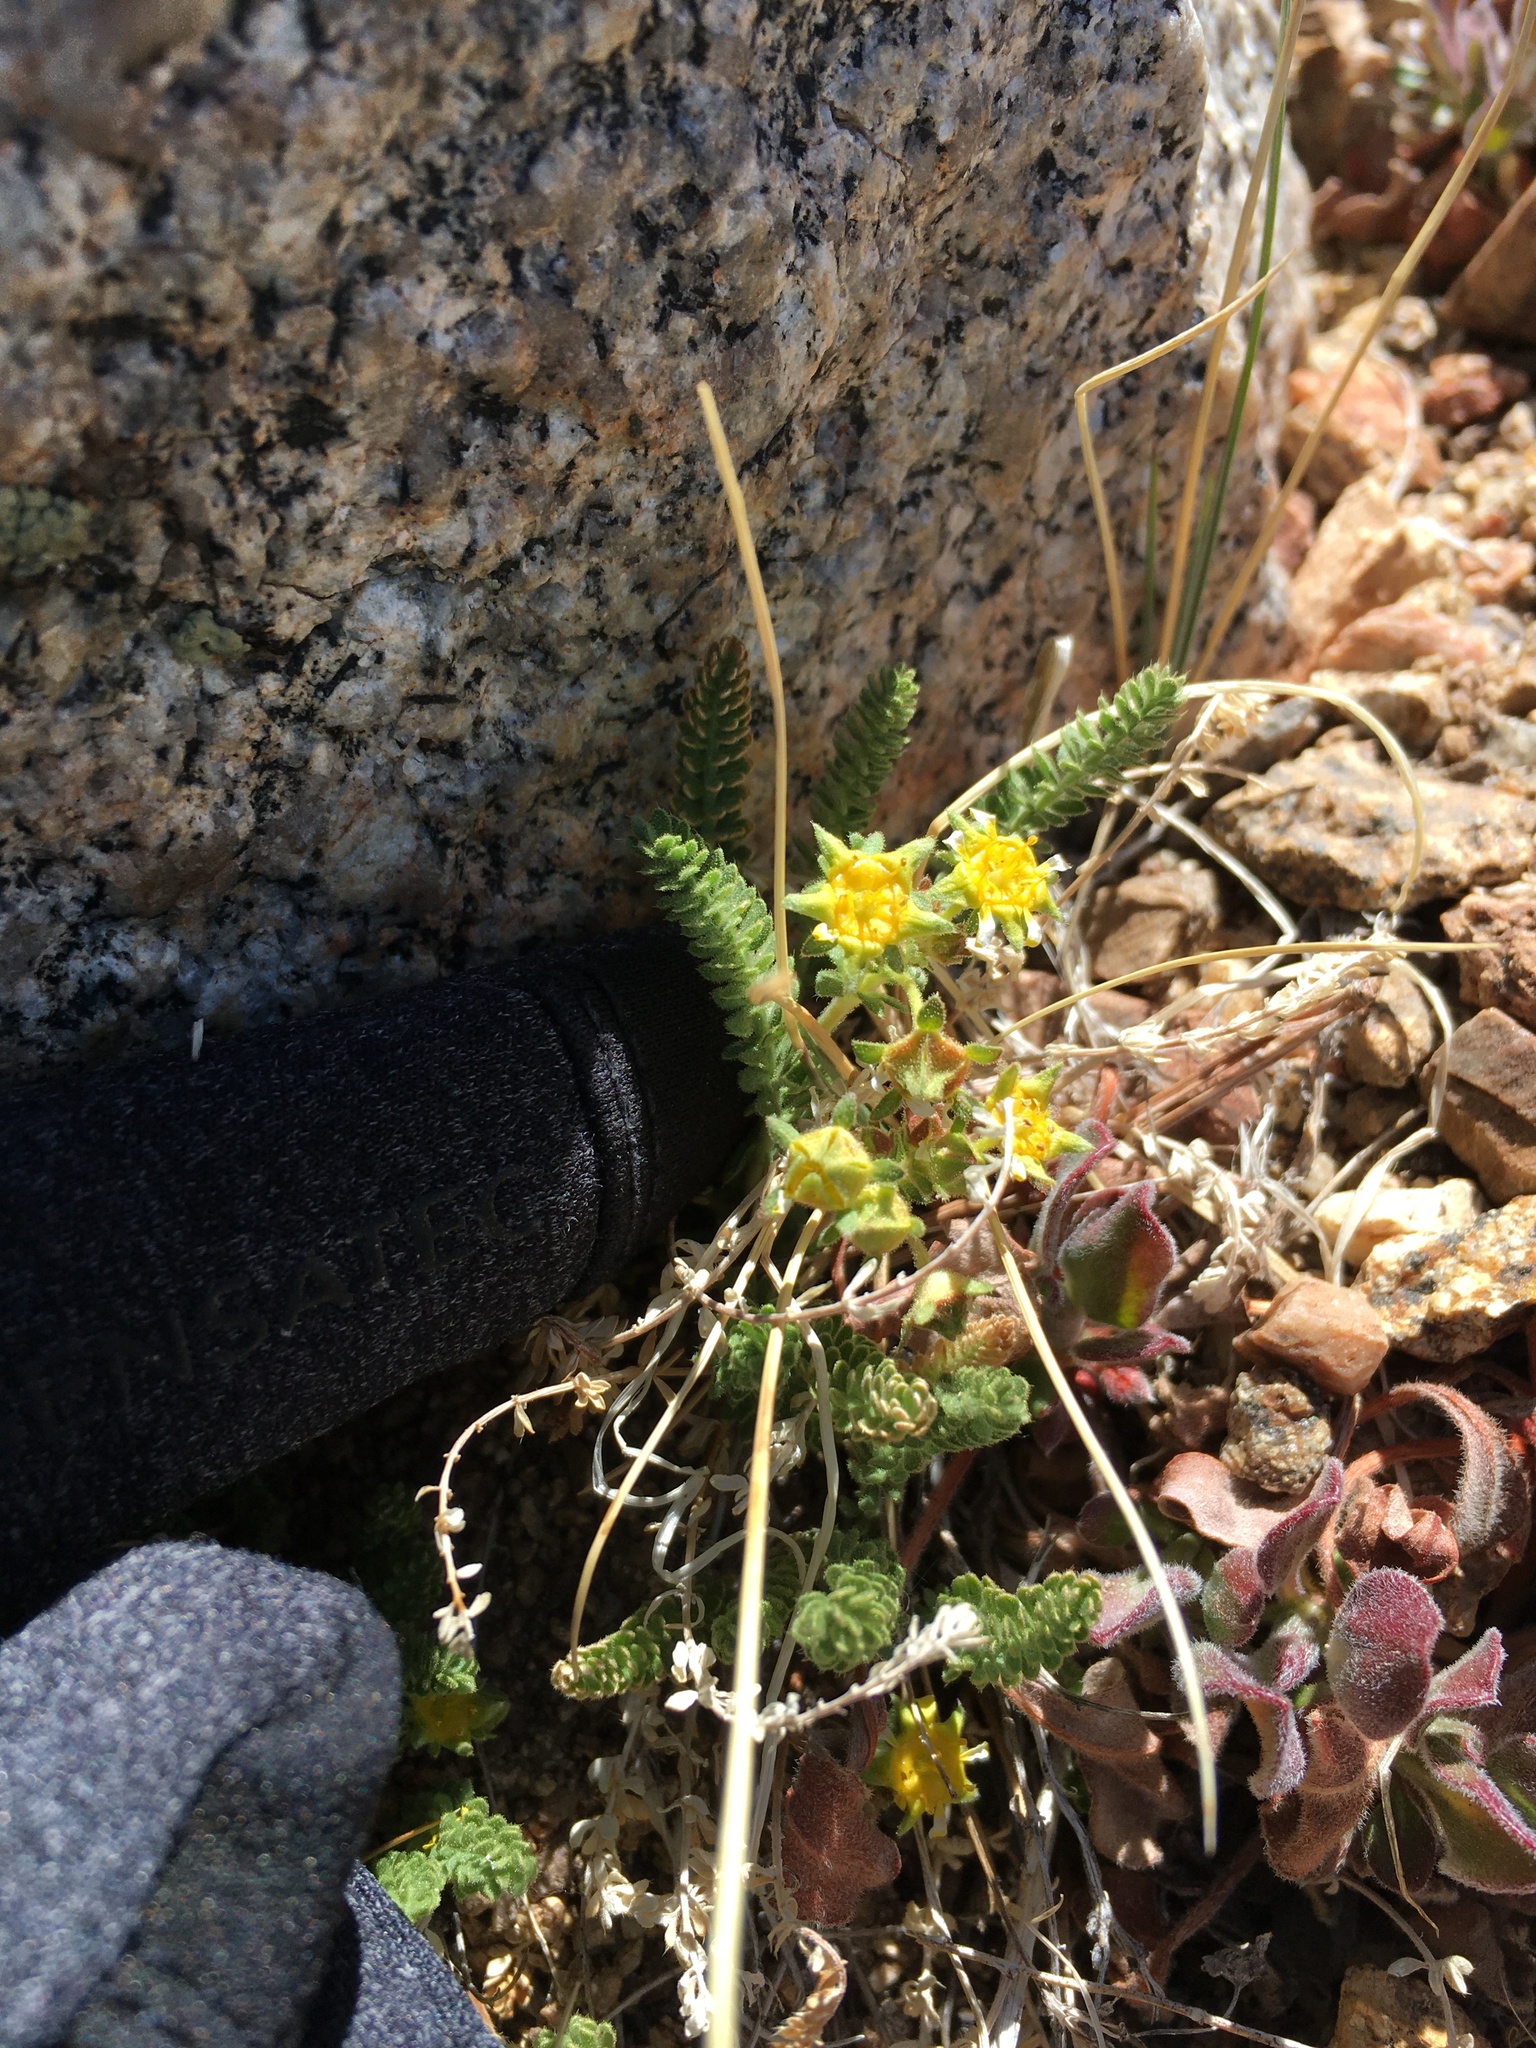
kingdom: Plantae
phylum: Tracheophyta
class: Magnoliopsida
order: Rosales
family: Rosaceae
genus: Potentilla
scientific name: Potentilla shockleyi
